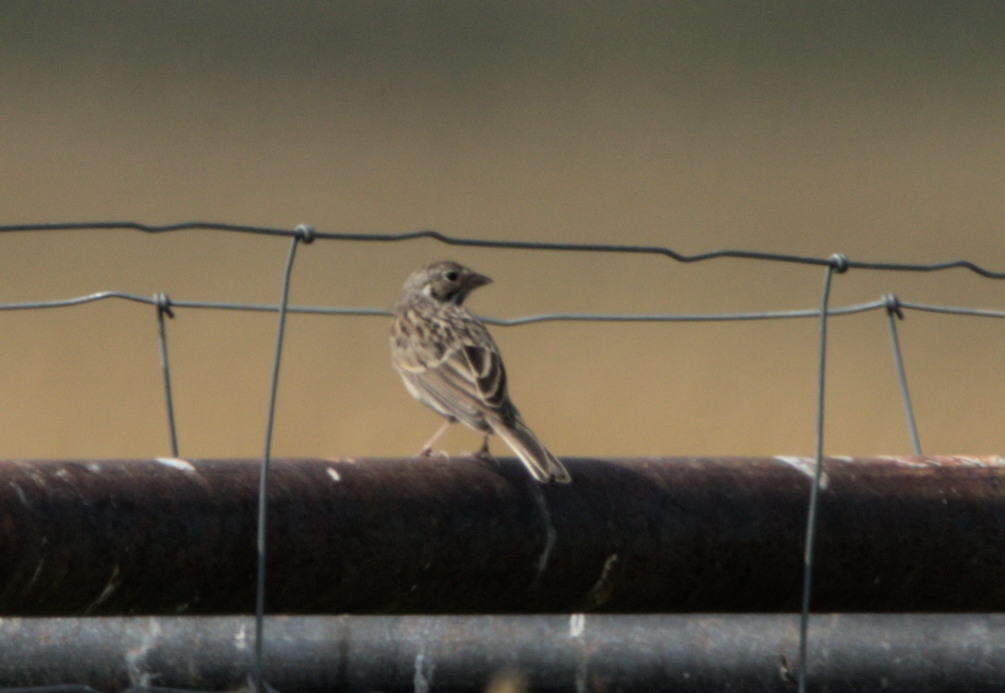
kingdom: Animalia
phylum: Chordata
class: Aves
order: Passeriformes
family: Passerellidae
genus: Pooecetes
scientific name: Pooecetes gramineus
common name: Vesper sparrow
